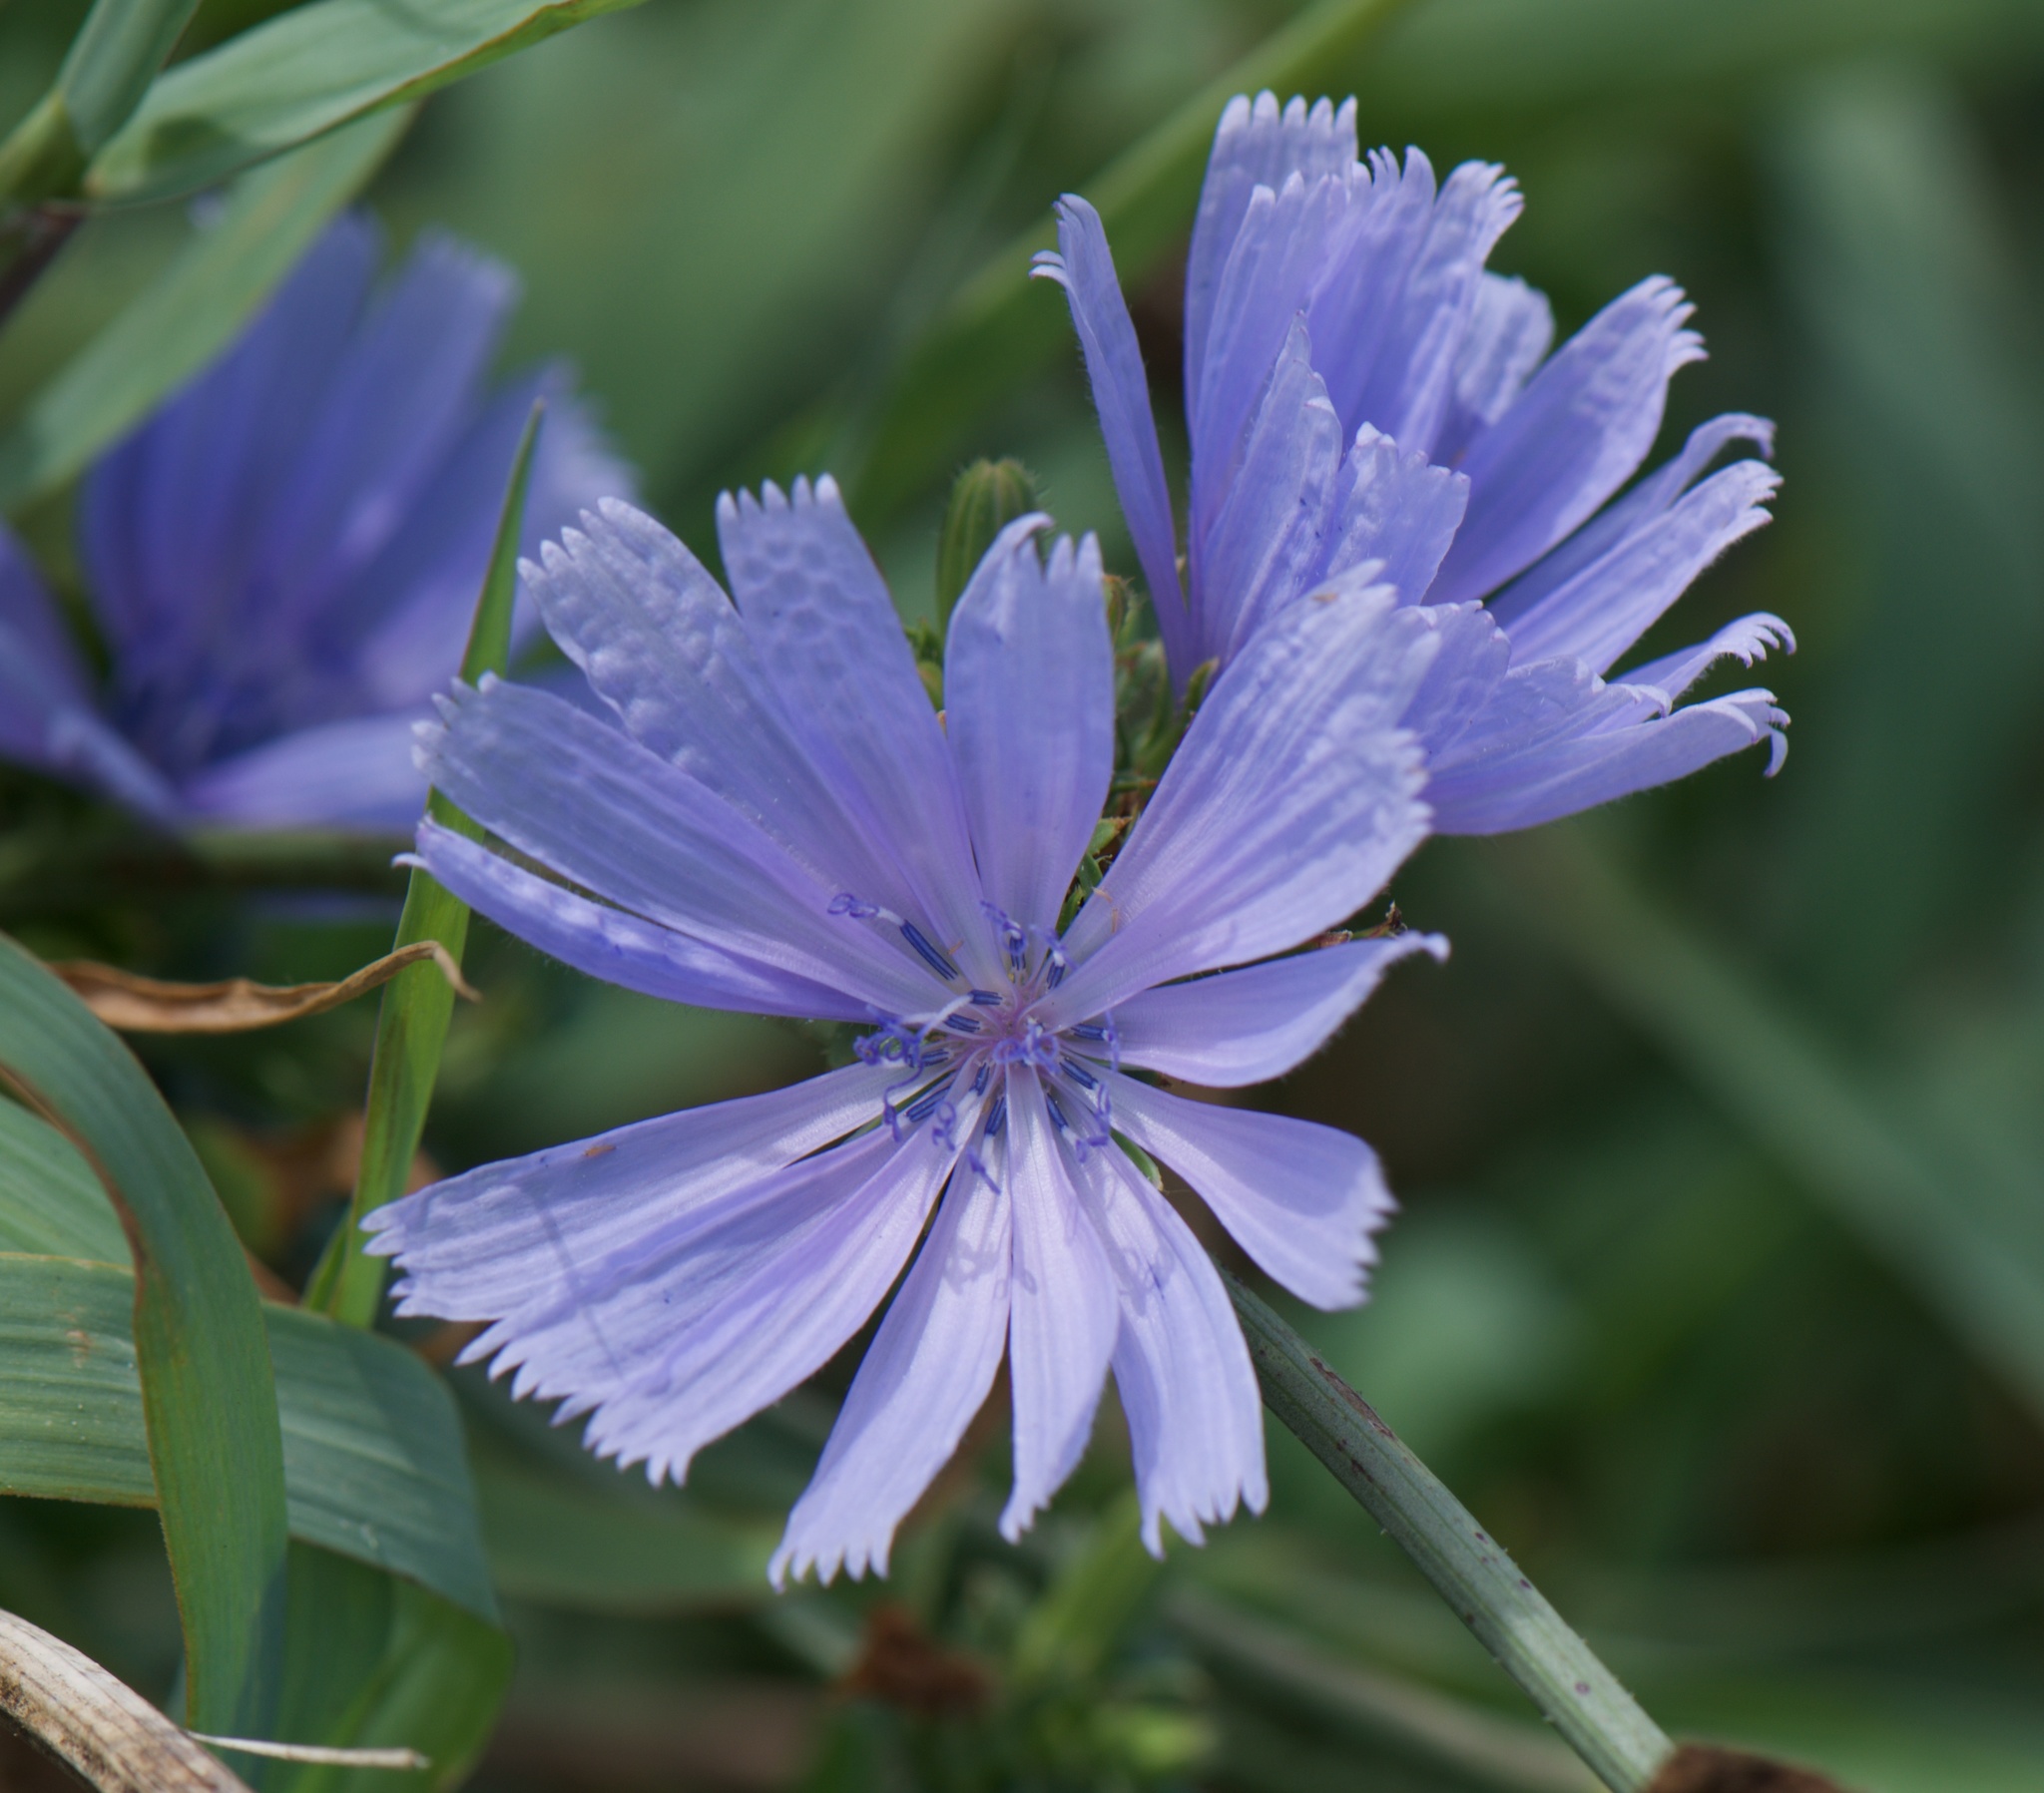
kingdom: Plantae
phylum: Tracheophyta
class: Magnoliopsida
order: Asterales
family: Asteraceae
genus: Cichorium
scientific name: Cichorium intybus
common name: Chicory
